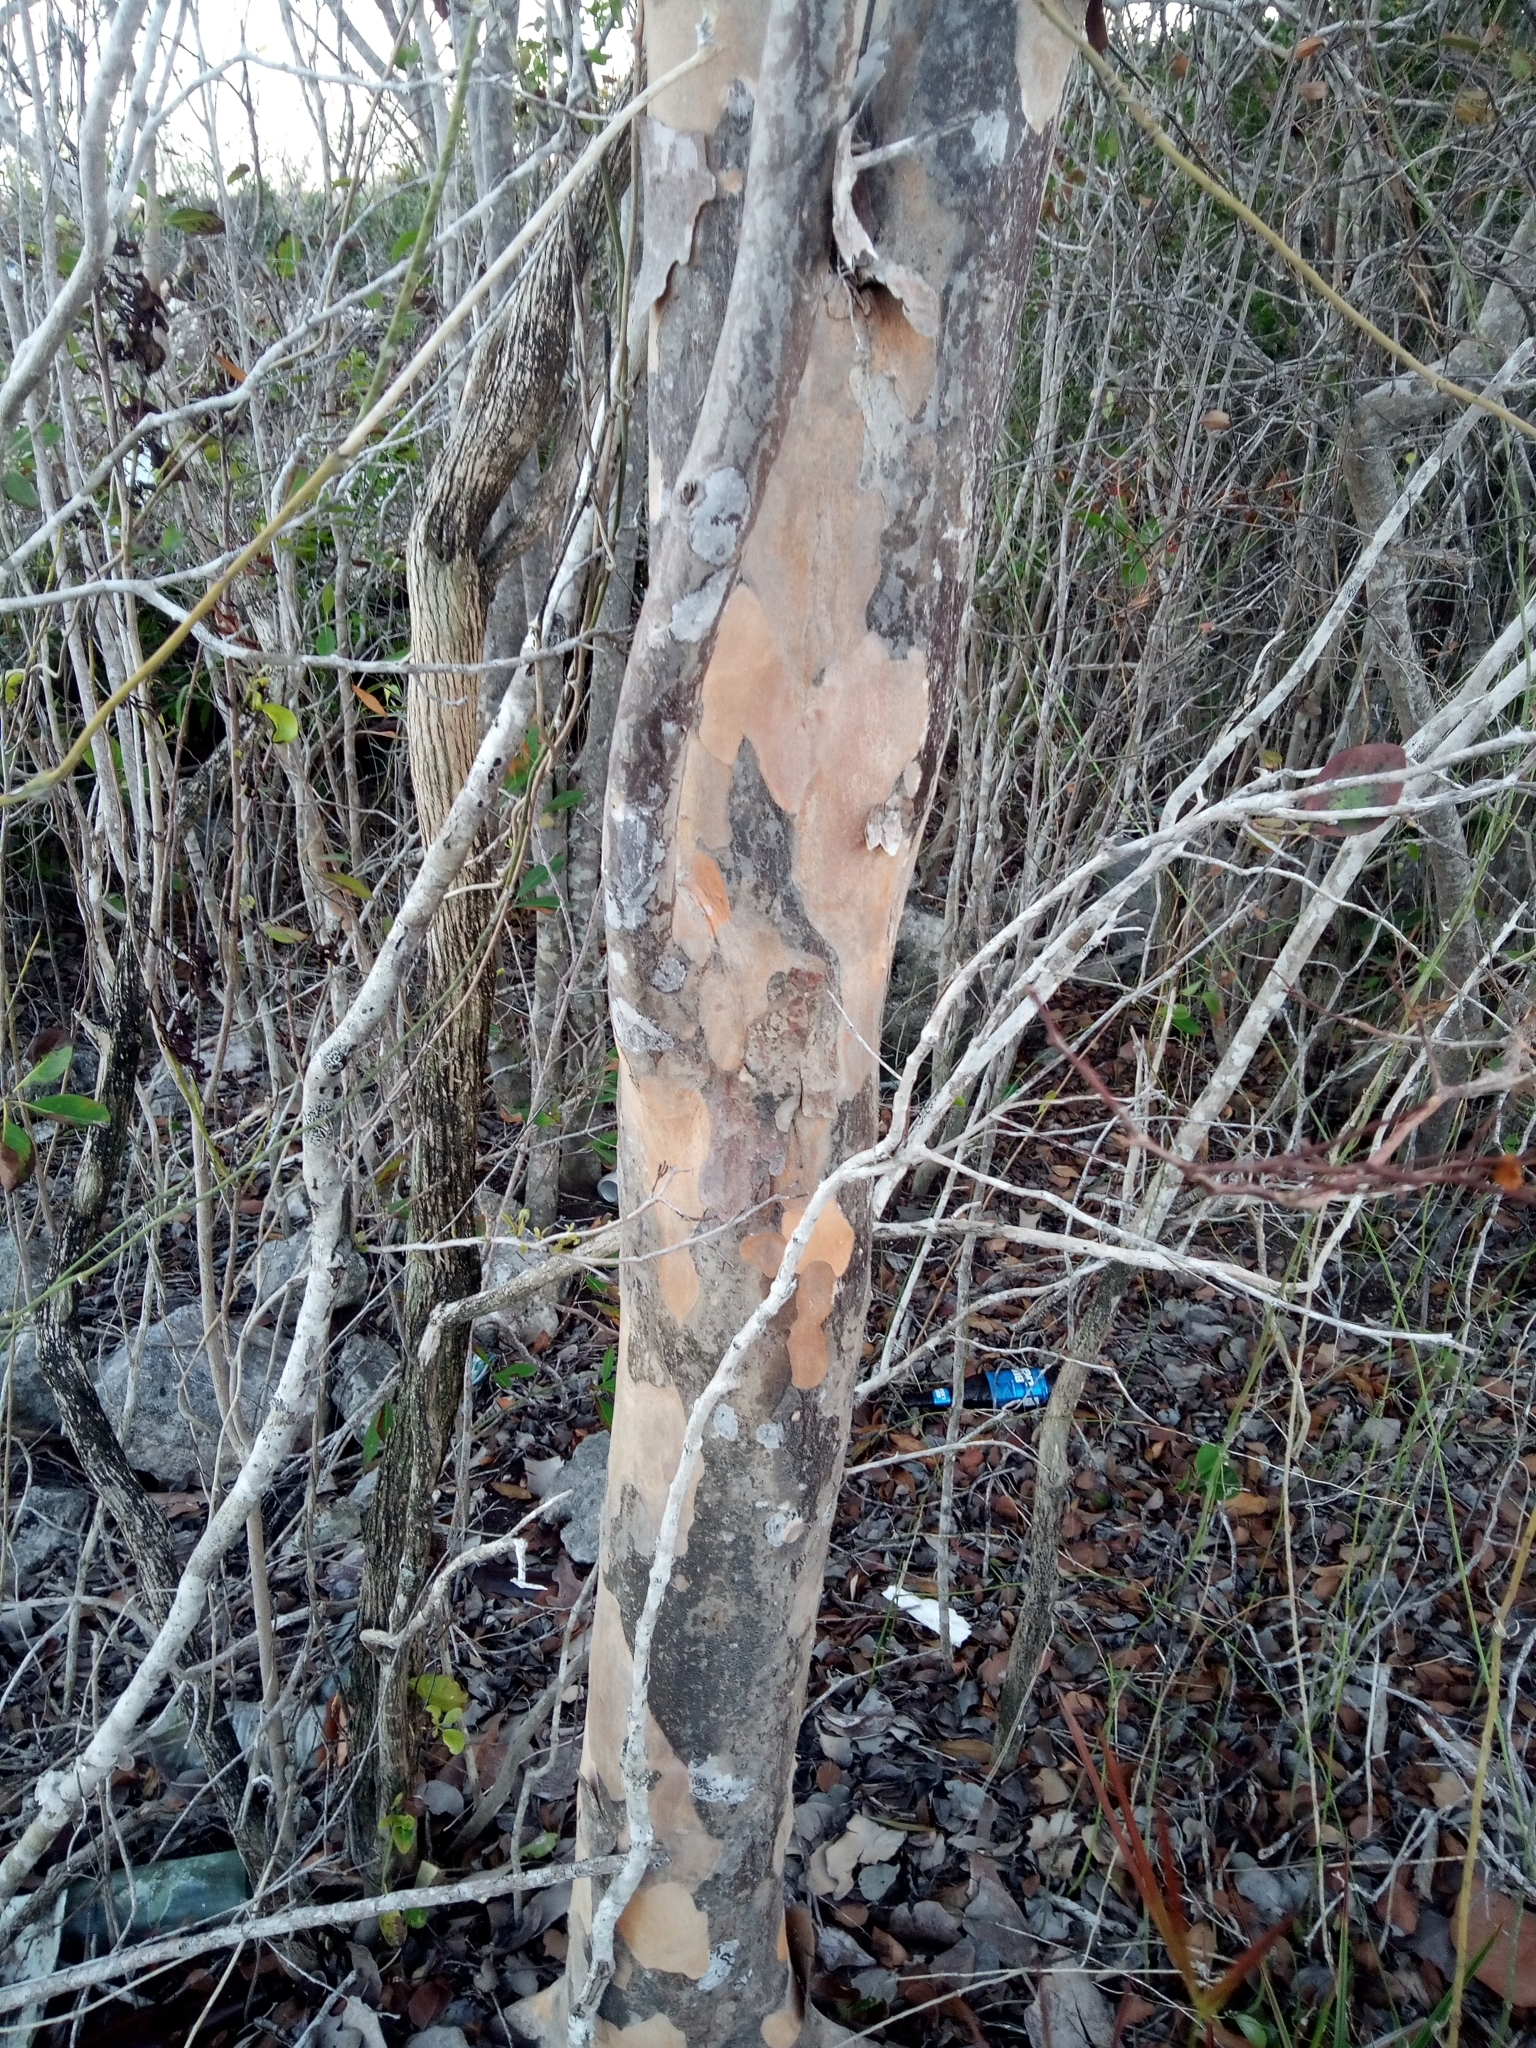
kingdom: Plantae
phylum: Tracheophyta
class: Magnoliopsida
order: Sapindales
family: Anacardiaceae
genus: Metopium
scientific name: Metopium toxiferum
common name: Florida poisontree
